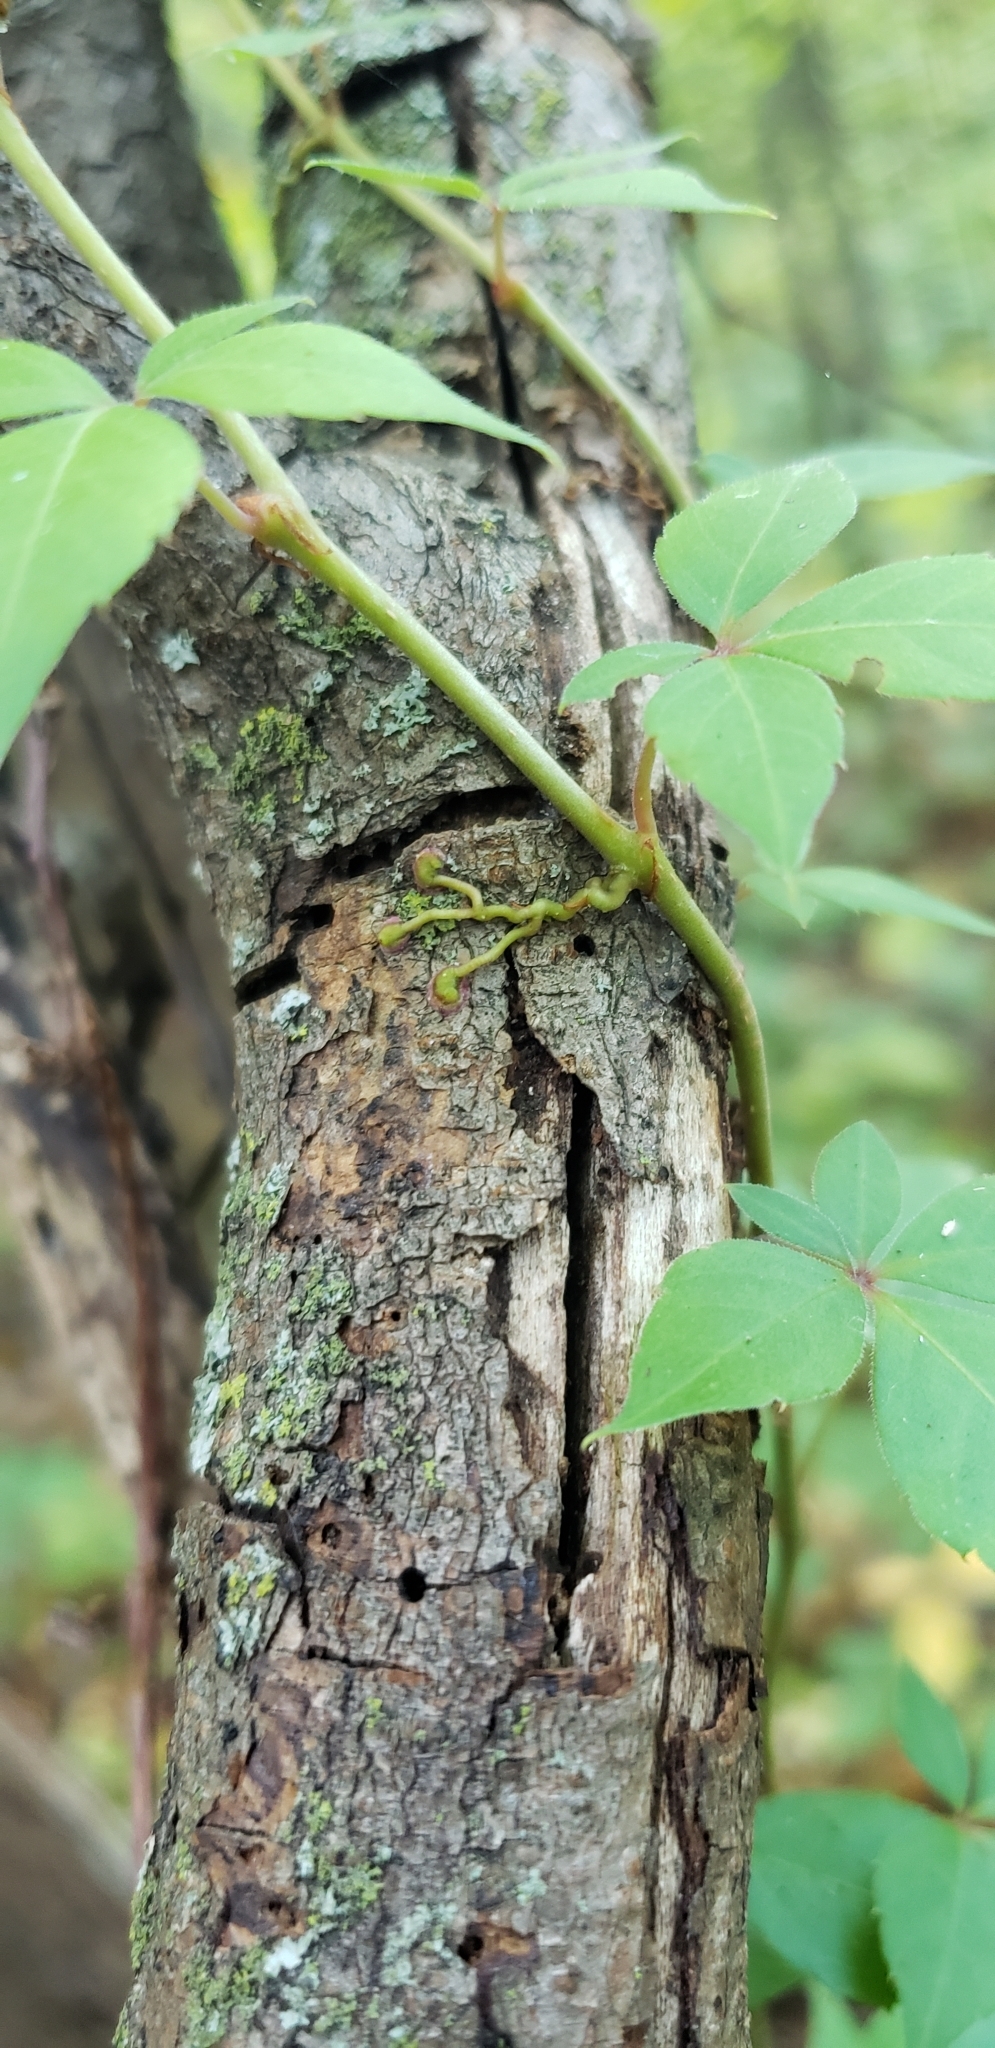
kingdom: Plantae
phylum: Tracheophyta
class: Magnoliopsida
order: Vitales
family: Vitaceae
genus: Parthenocissus
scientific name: Parthenocissus quinquefolia
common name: Virginia-creeper
